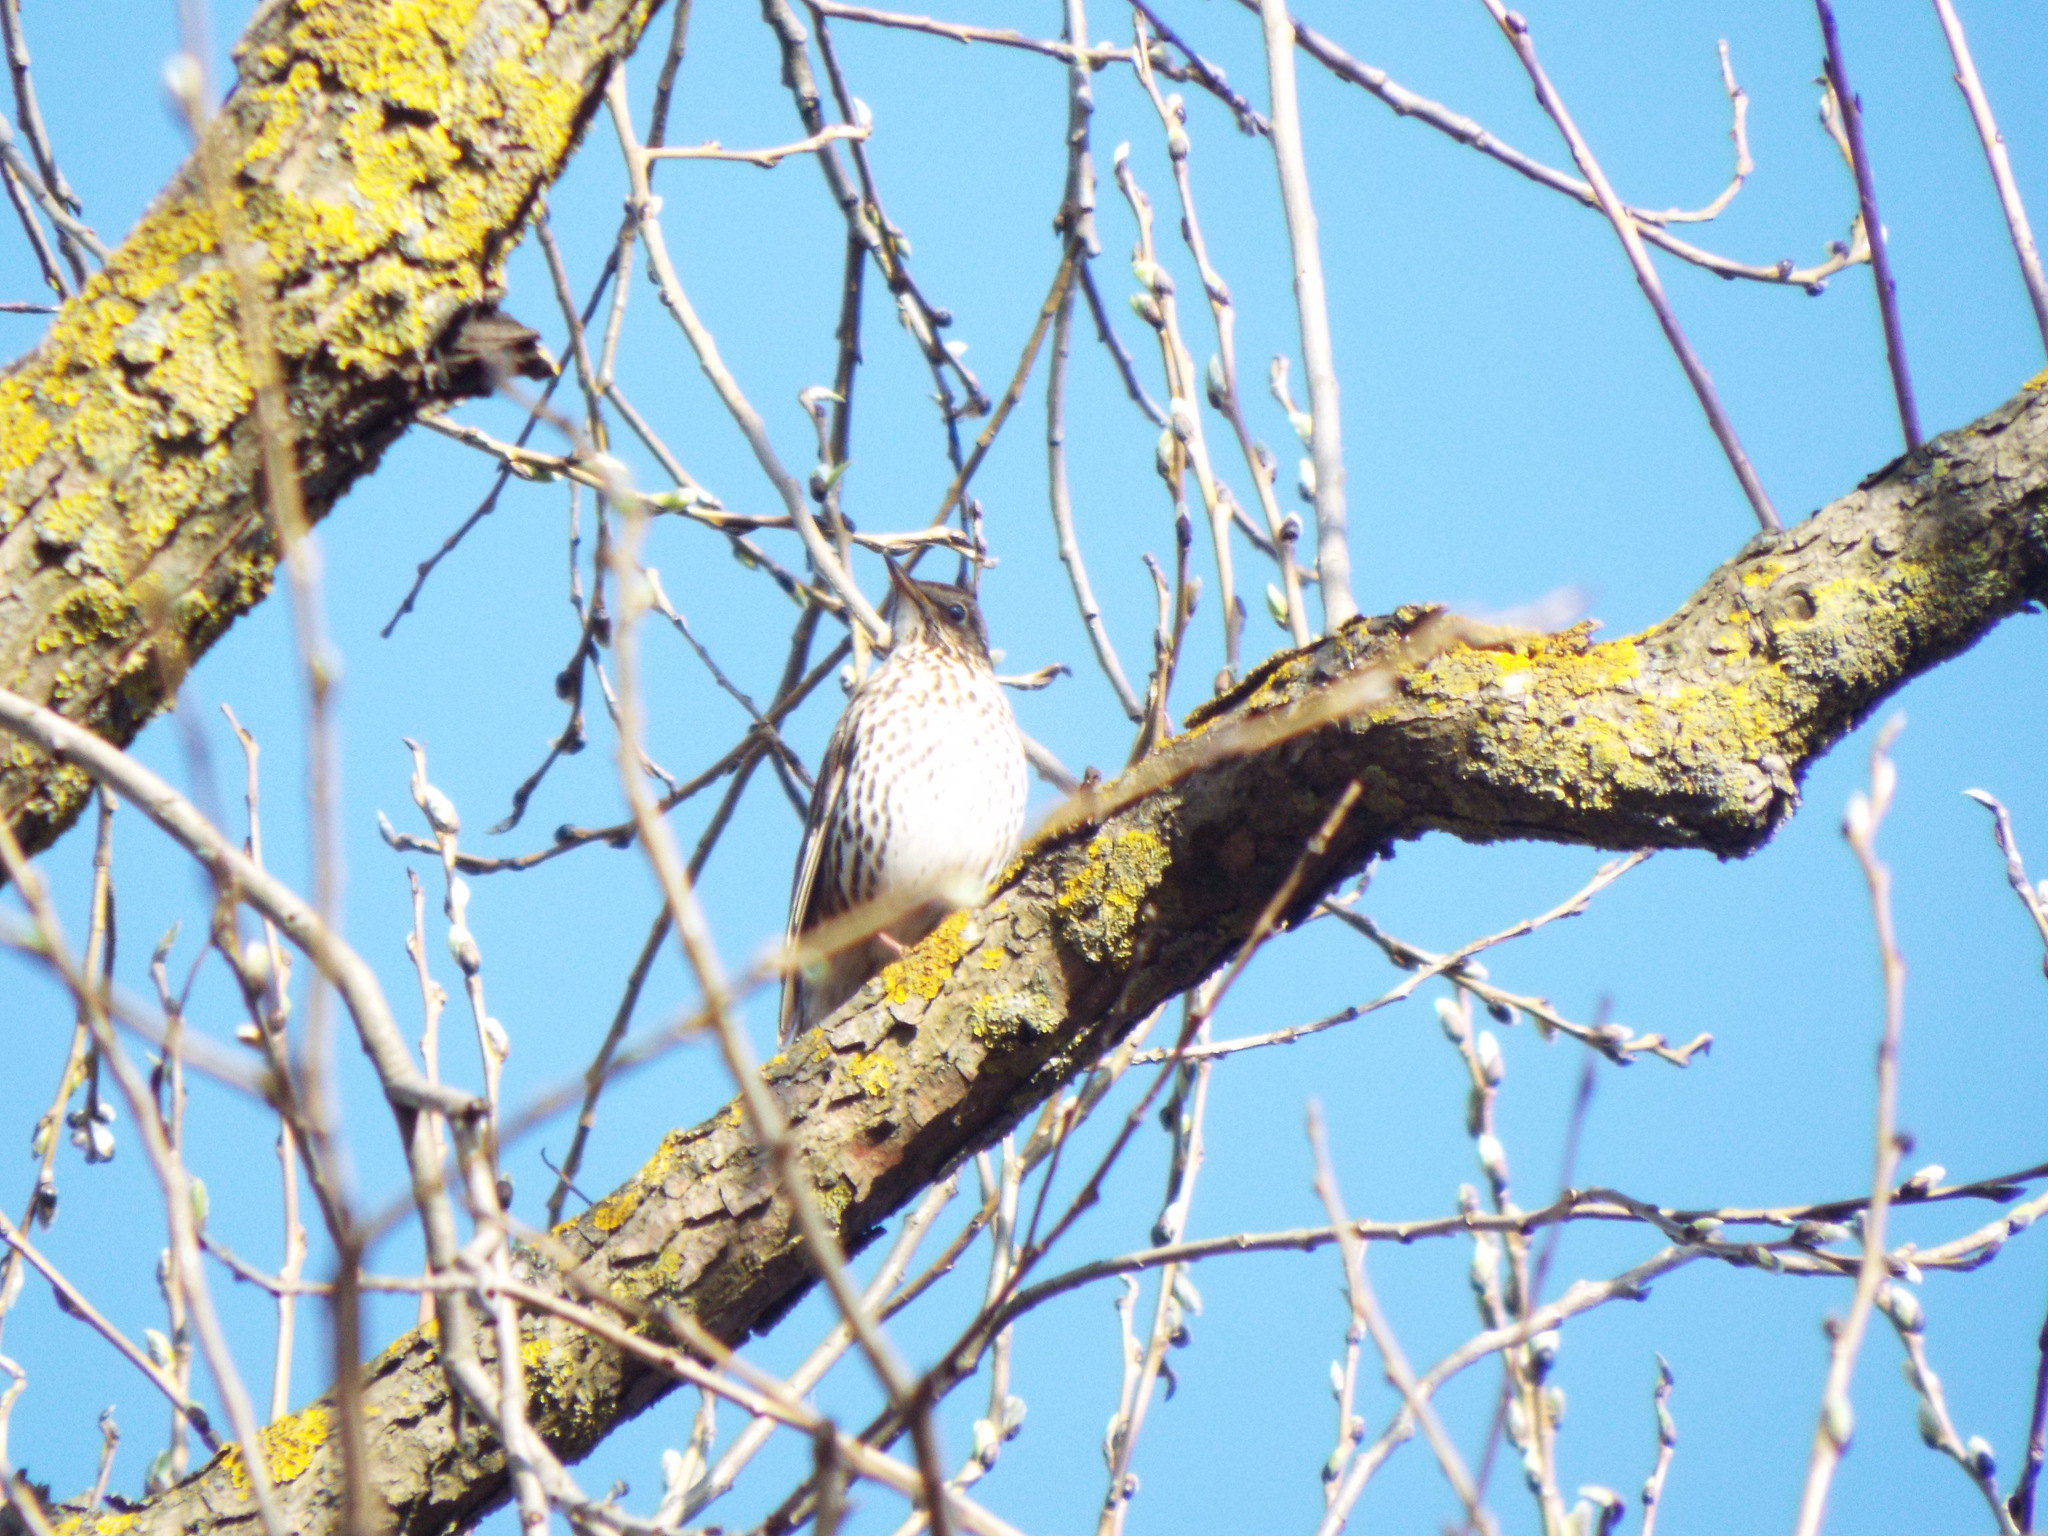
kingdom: Animalia
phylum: Chordata
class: Aves
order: Passeriformes
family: Turdidae
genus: Turdus
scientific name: Turdus philomelos
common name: Song thrush
